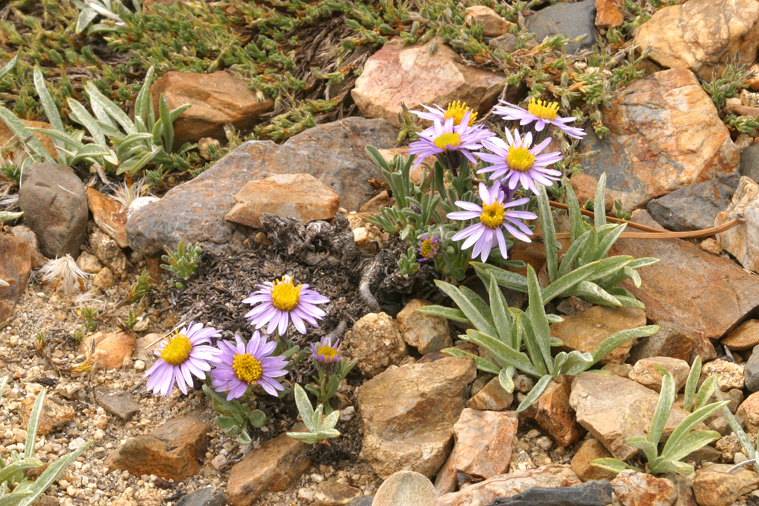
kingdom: Plantae
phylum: Tracheophyta
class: Magnoliopsida
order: Asterales
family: Asteraceae
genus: Erigeron
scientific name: Erigeron pygmaeus
